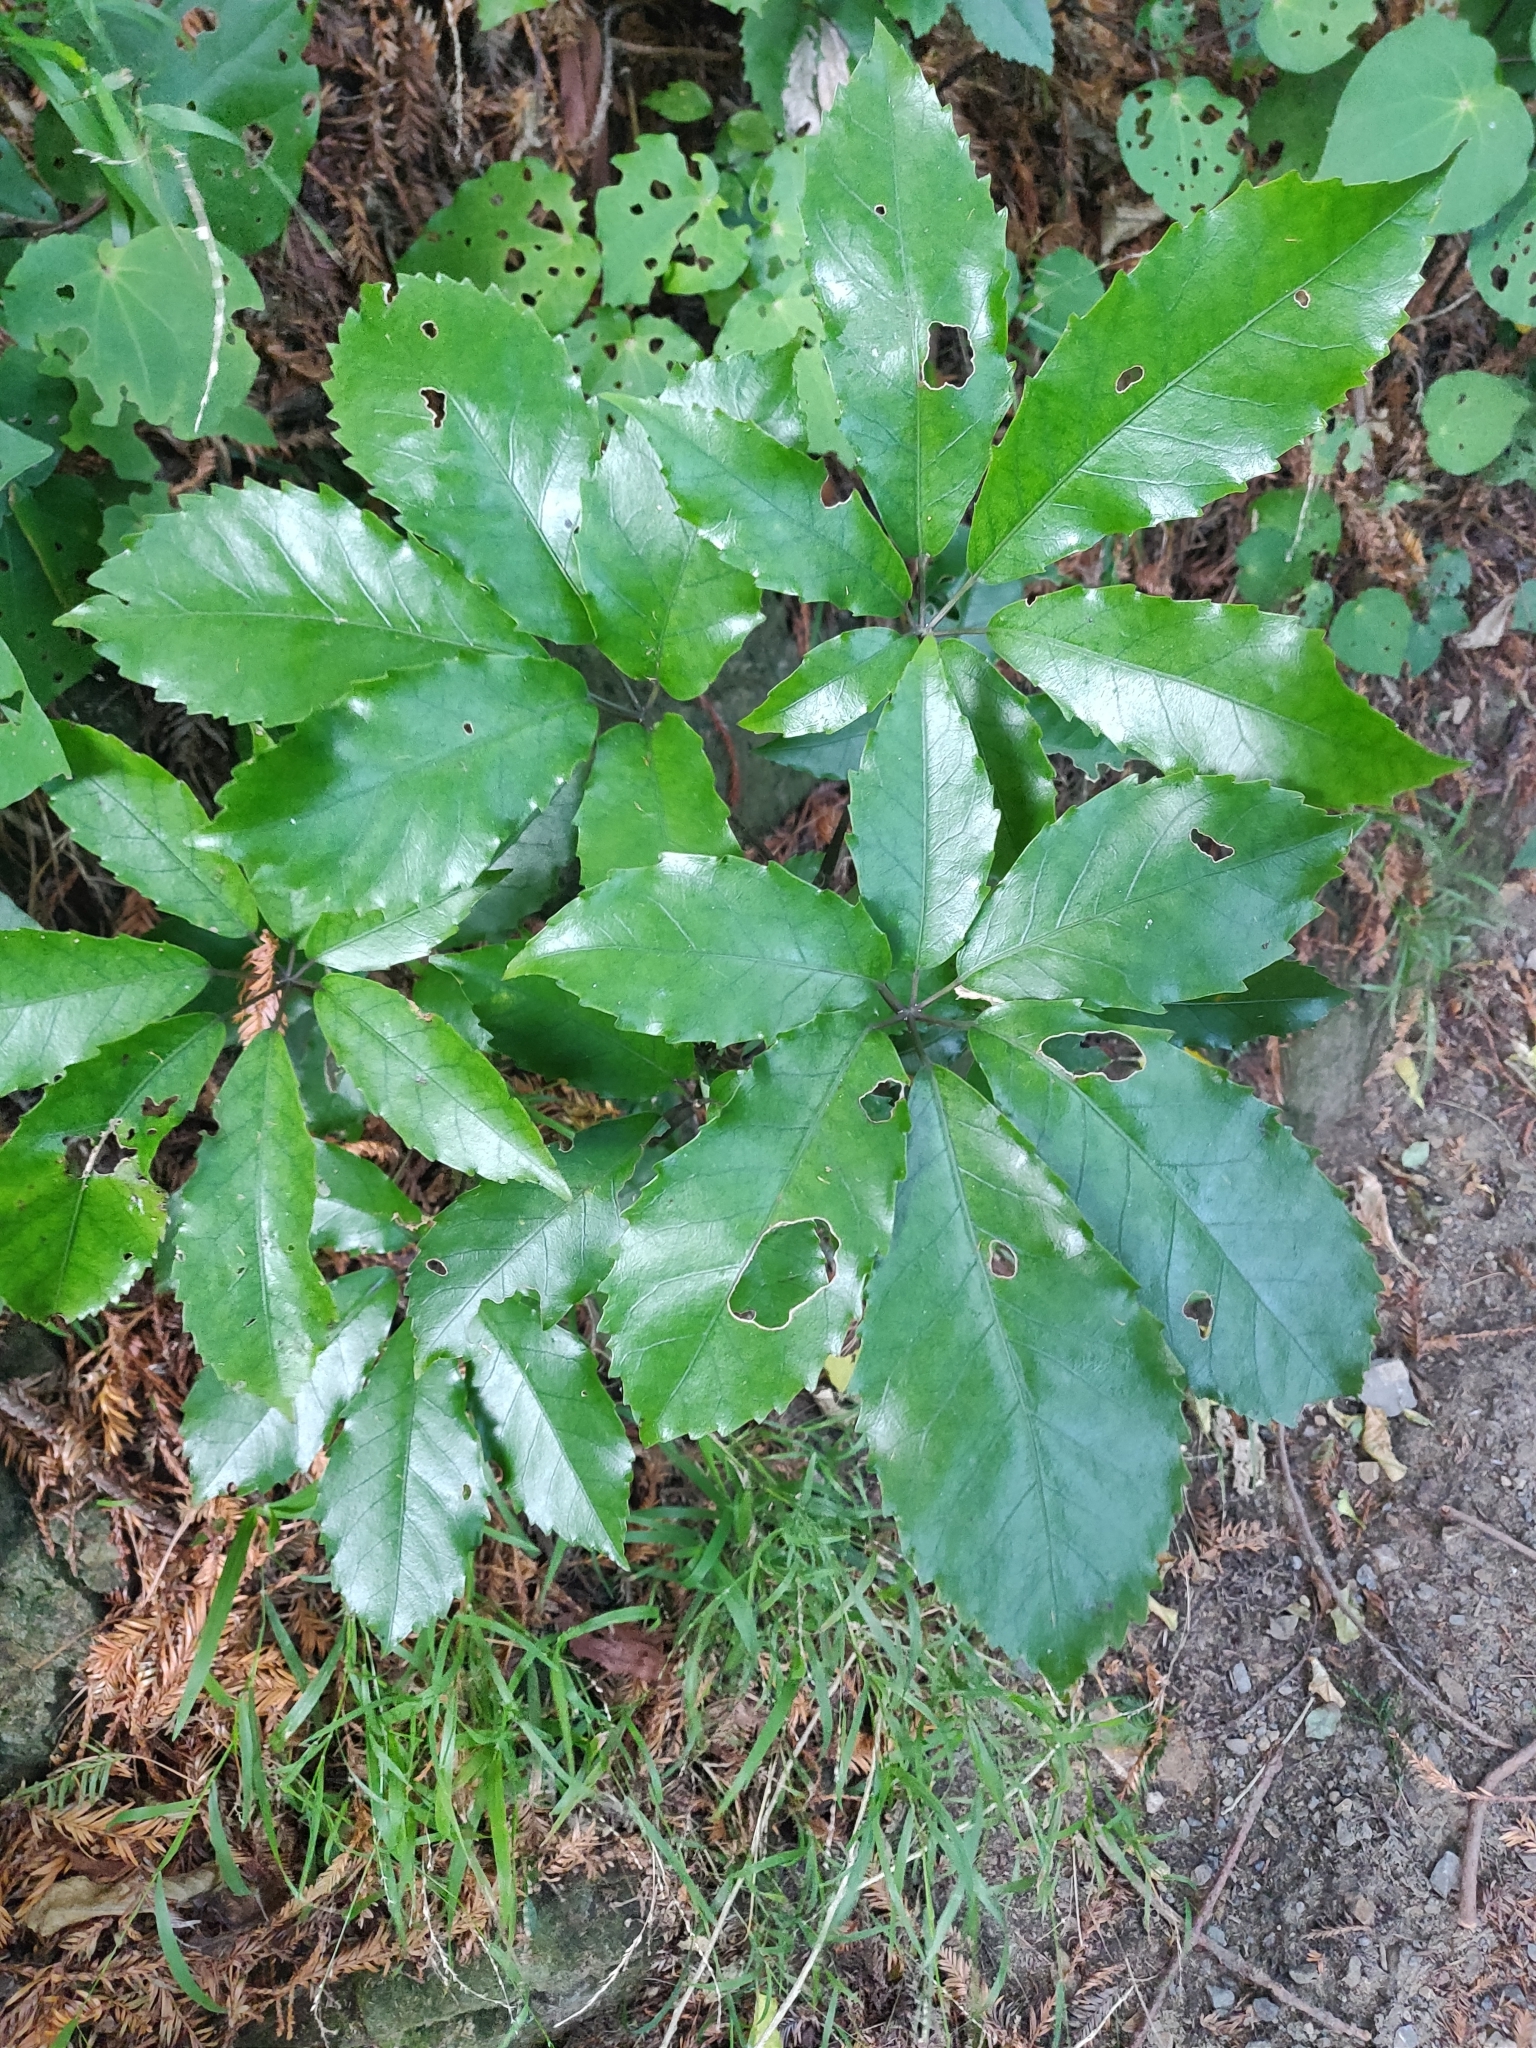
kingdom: Plantae
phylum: Tracheophyta
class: Magnoliopsida
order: Apiales
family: Araliaceae
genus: Neopanax
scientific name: Neopanax arboreus
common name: Five-fingers
